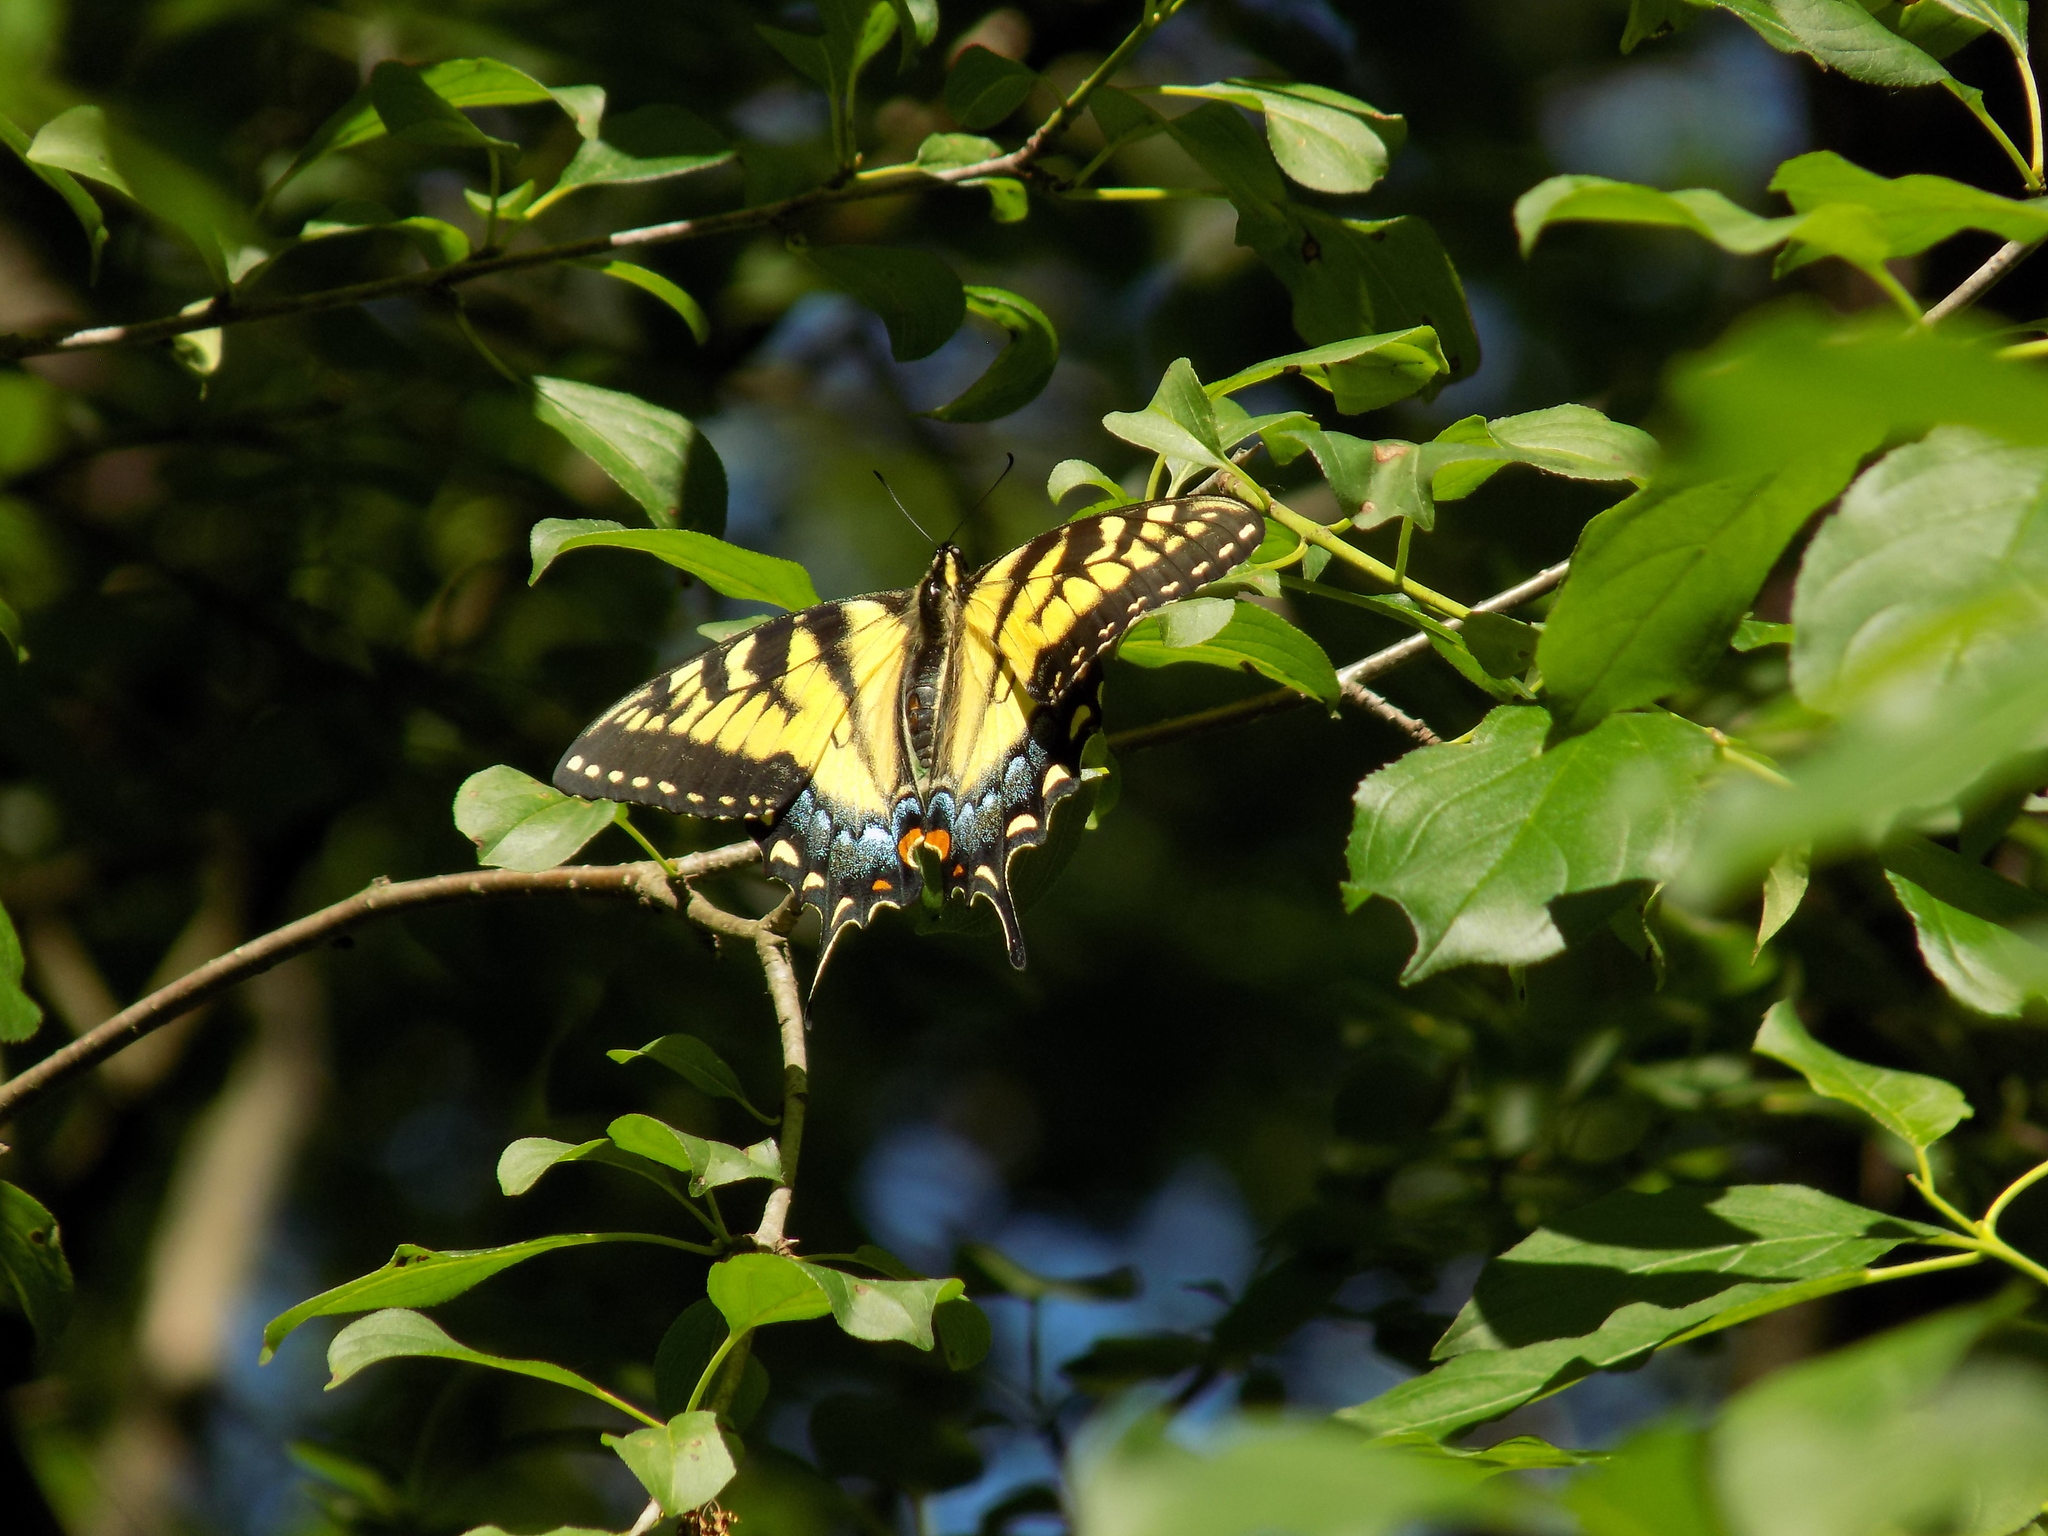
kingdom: Animalia
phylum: Arthropoda
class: Insecta
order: Lepidoptera
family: Papilionidae
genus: Papilio
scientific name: Papilio glaucus
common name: Tiger swallowtail
